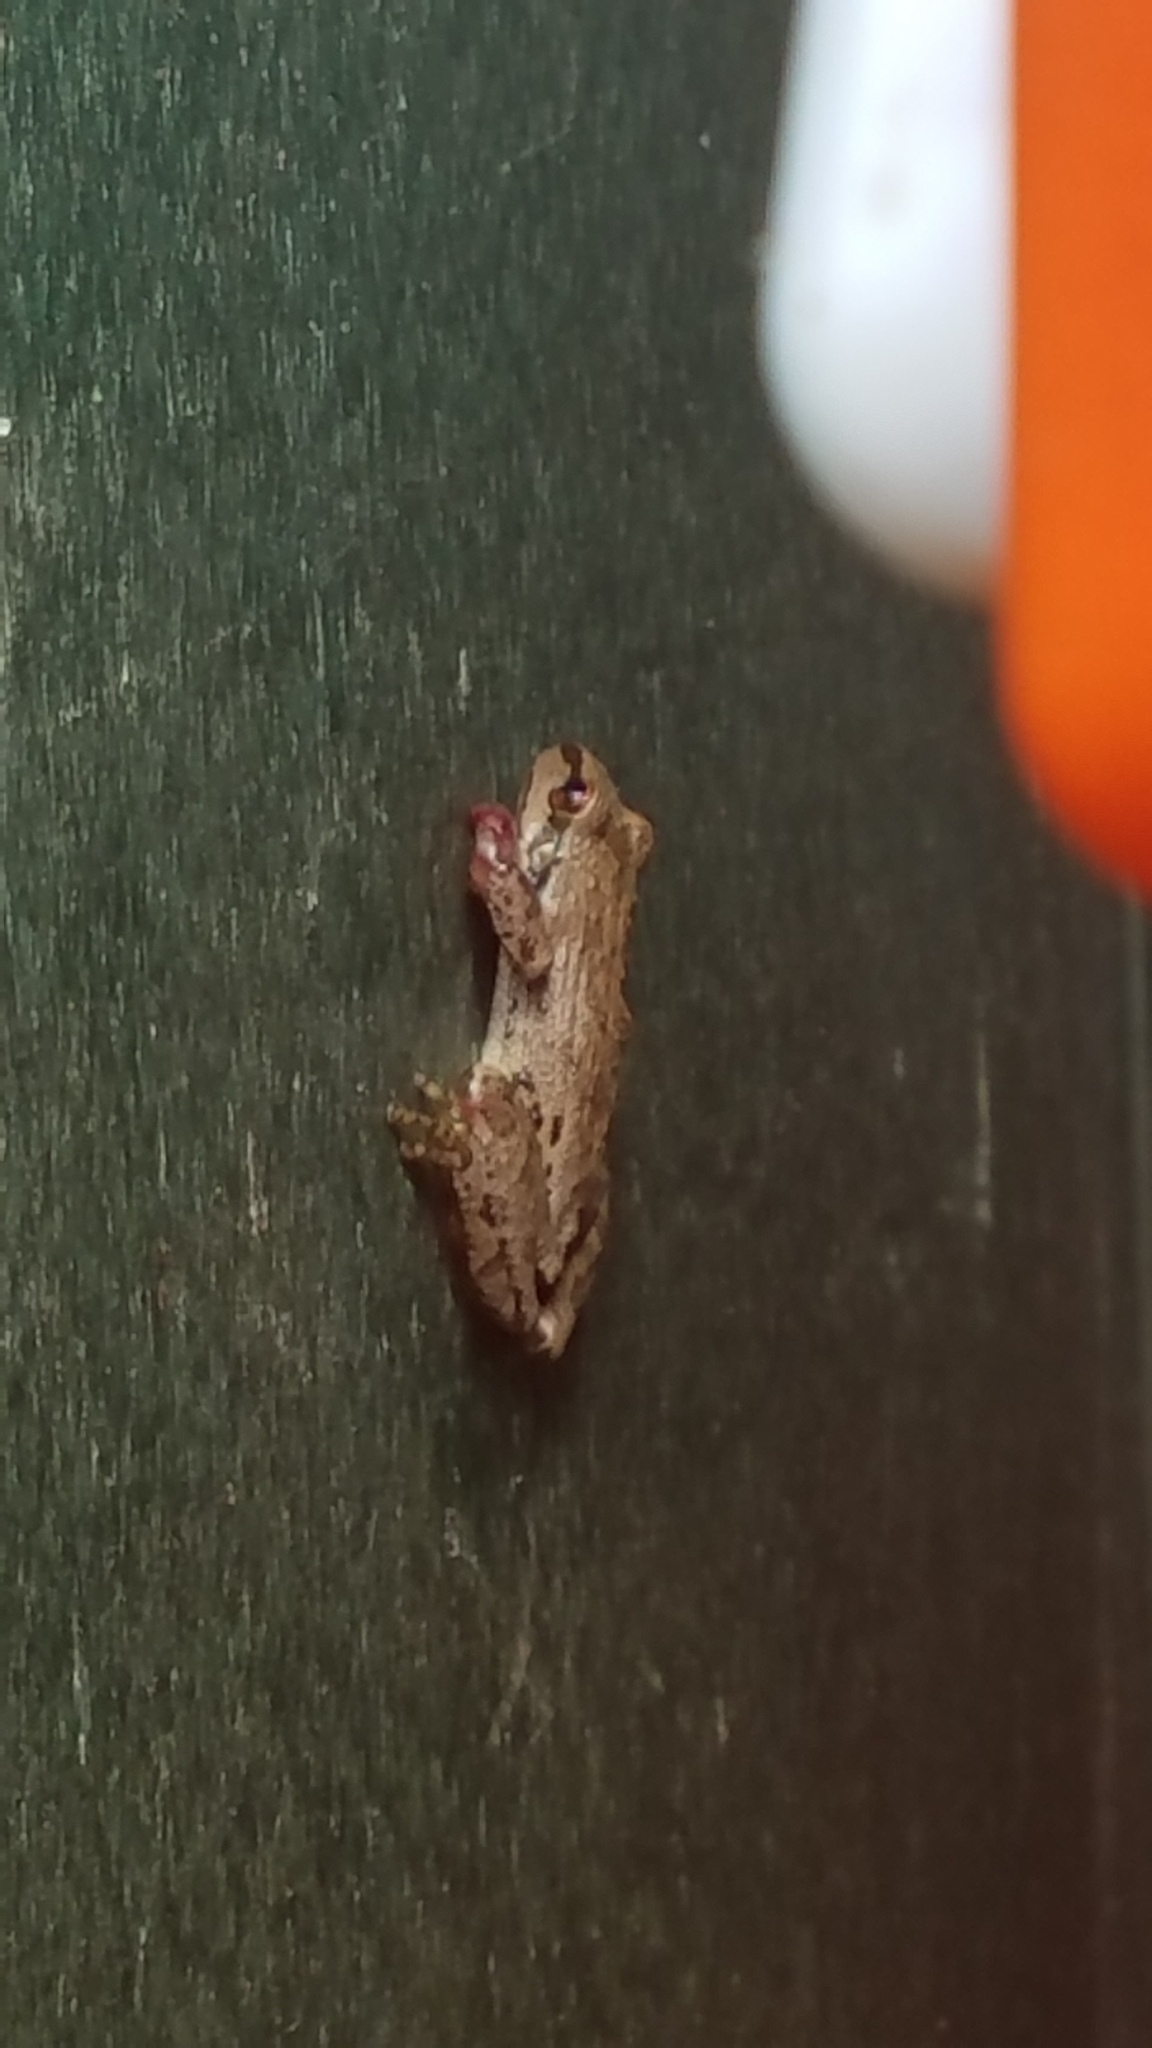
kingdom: Animalia
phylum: Chordata
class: Amphibia
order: Anura
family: Hylidae
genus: Pseudacris
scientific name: Pseudacris regilla
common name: Pacific chorus frog
